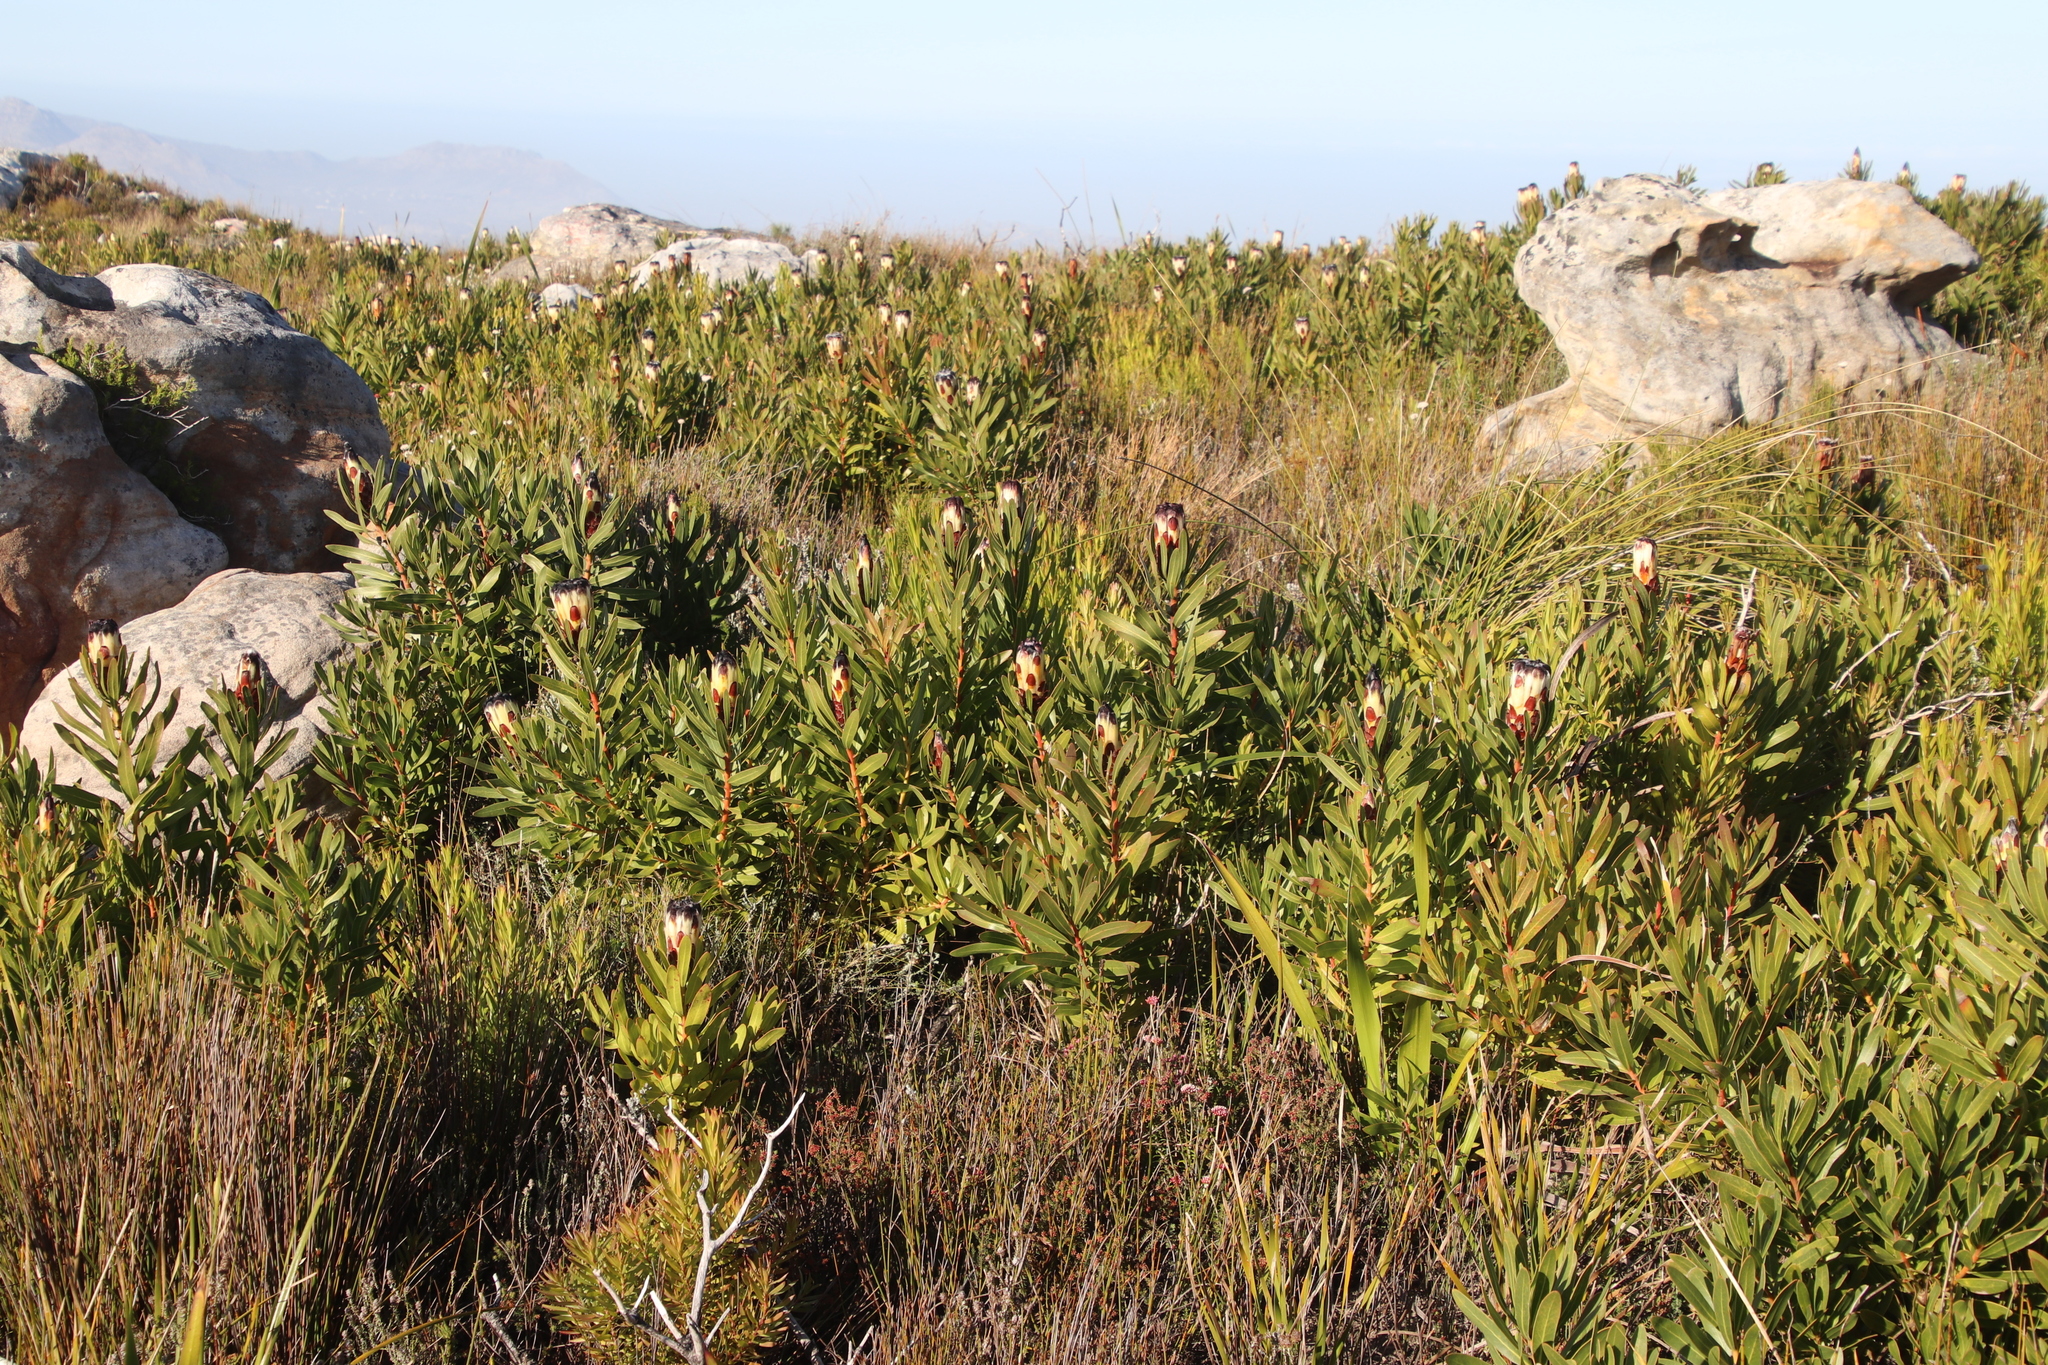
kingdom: Plantae
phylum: Tracheophyta
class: Magnoliopsida
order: Proteales
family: Proteaceae
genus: Protea
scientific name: Protea lepidocarpodendron
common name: Black-bearded protea
